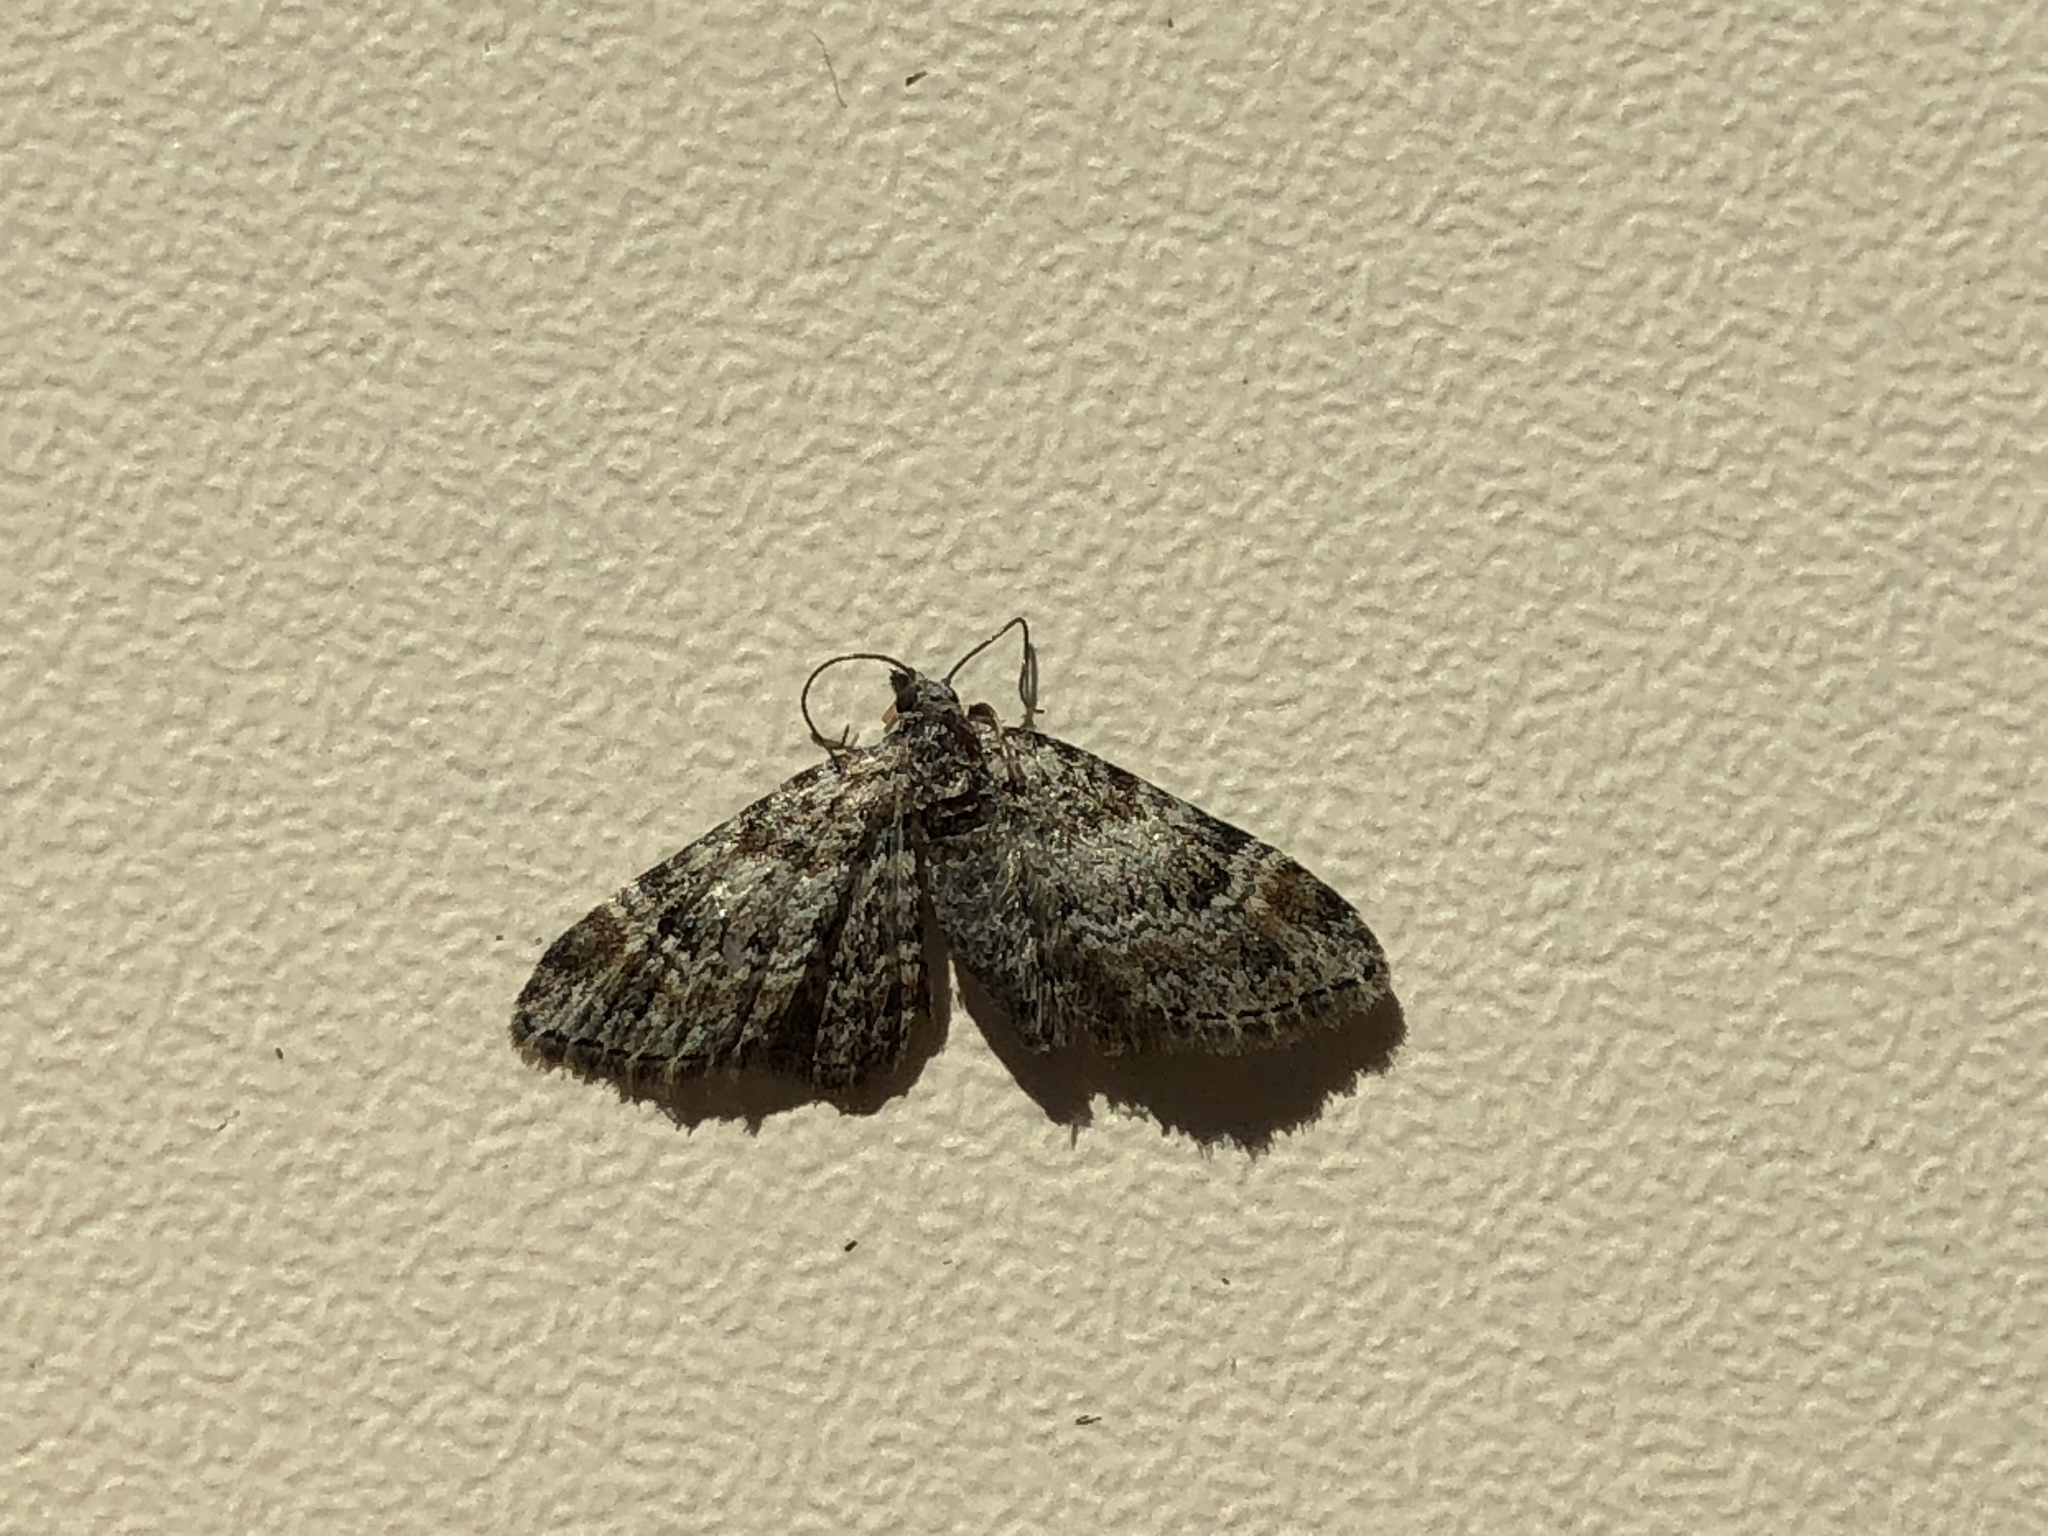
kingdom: Animalia
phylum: Arthropoda
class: Insecta
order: Lepidoptera
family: Geometridae
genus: Gymnoscelis
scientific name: Gymnoscelis rufifasciata
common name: Double-striped pug
